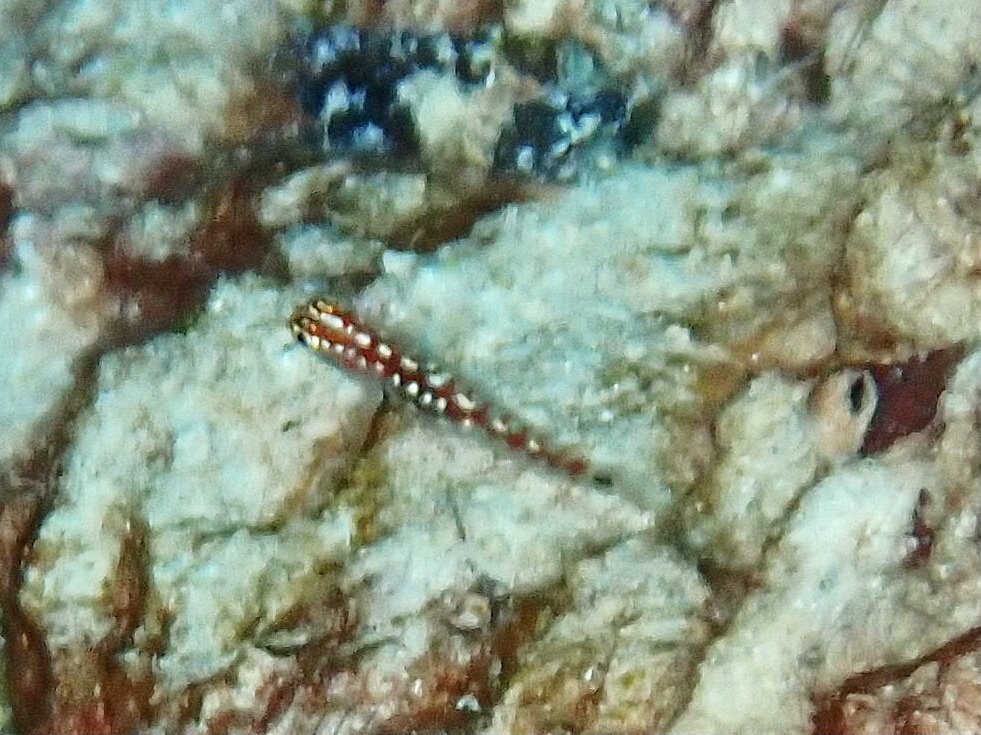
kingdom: Animalia
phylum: Chordata
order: Perciformes
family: Gobiidae
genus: Eviota
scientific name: Eviota marerubrum
